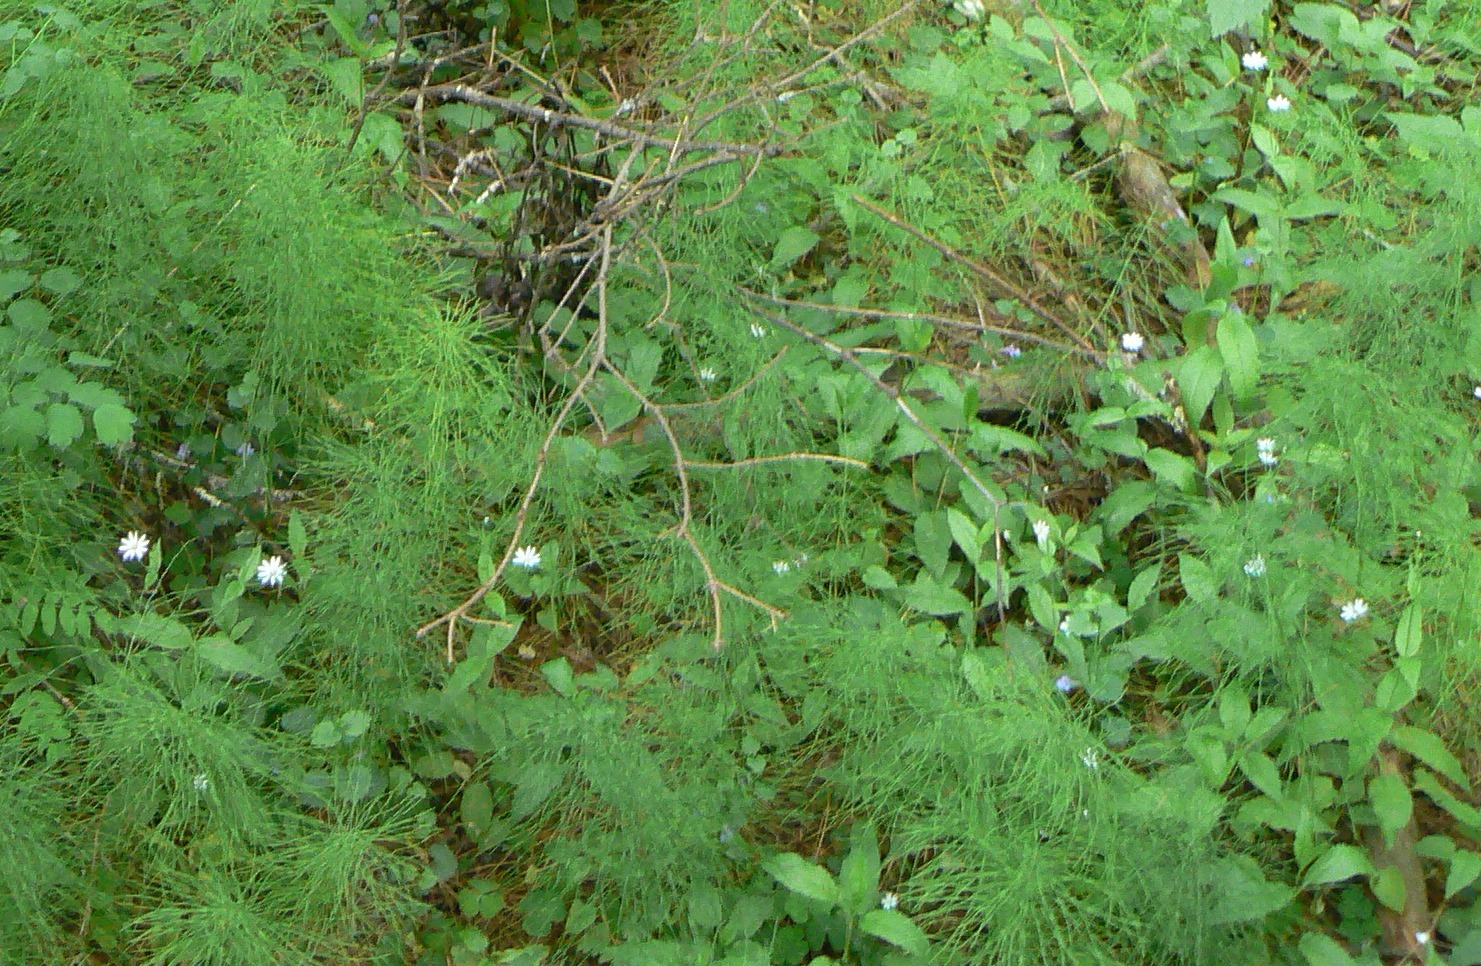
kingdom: Plantae
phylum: Tracheophyta
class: Magnoliopsida
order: Caryophyllales
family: Caryophyllaceae
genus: Stellaria
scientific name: Stellaria bungeana
